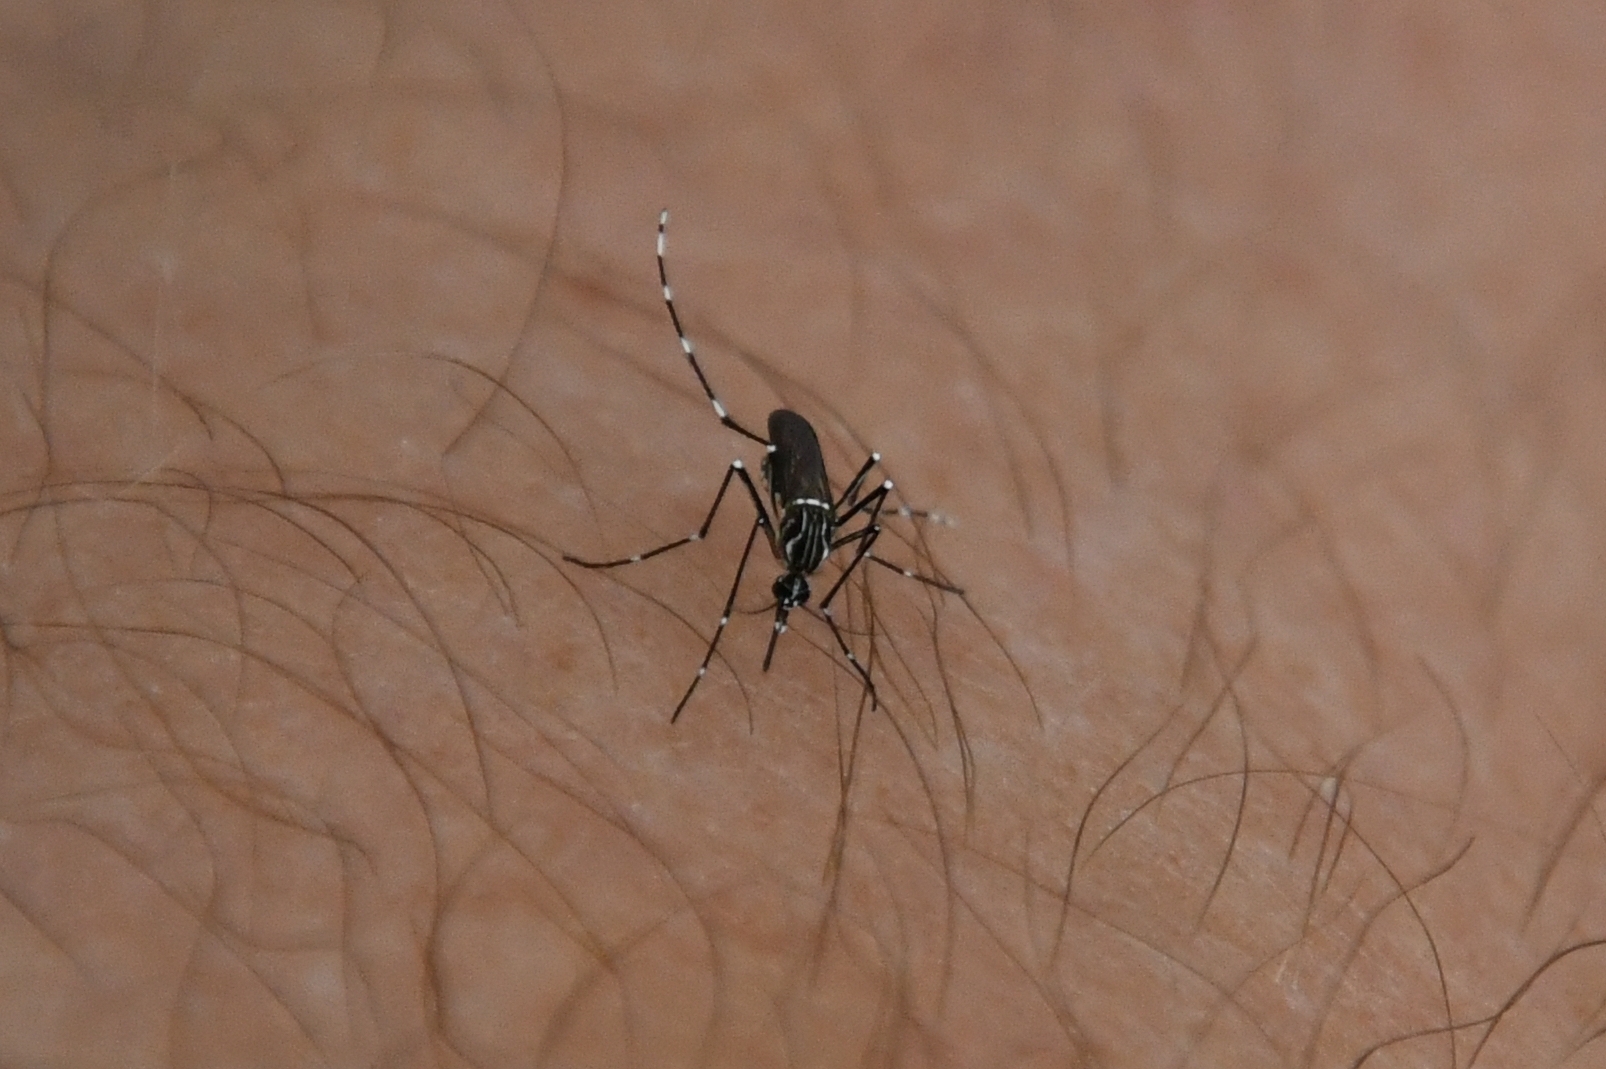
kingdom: Animalia
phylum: Arthropoda
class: Insecta
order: Diptera
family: Culicidae
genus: Aedes
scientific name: Aedes aegypti
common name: Yellow fever mosquito
